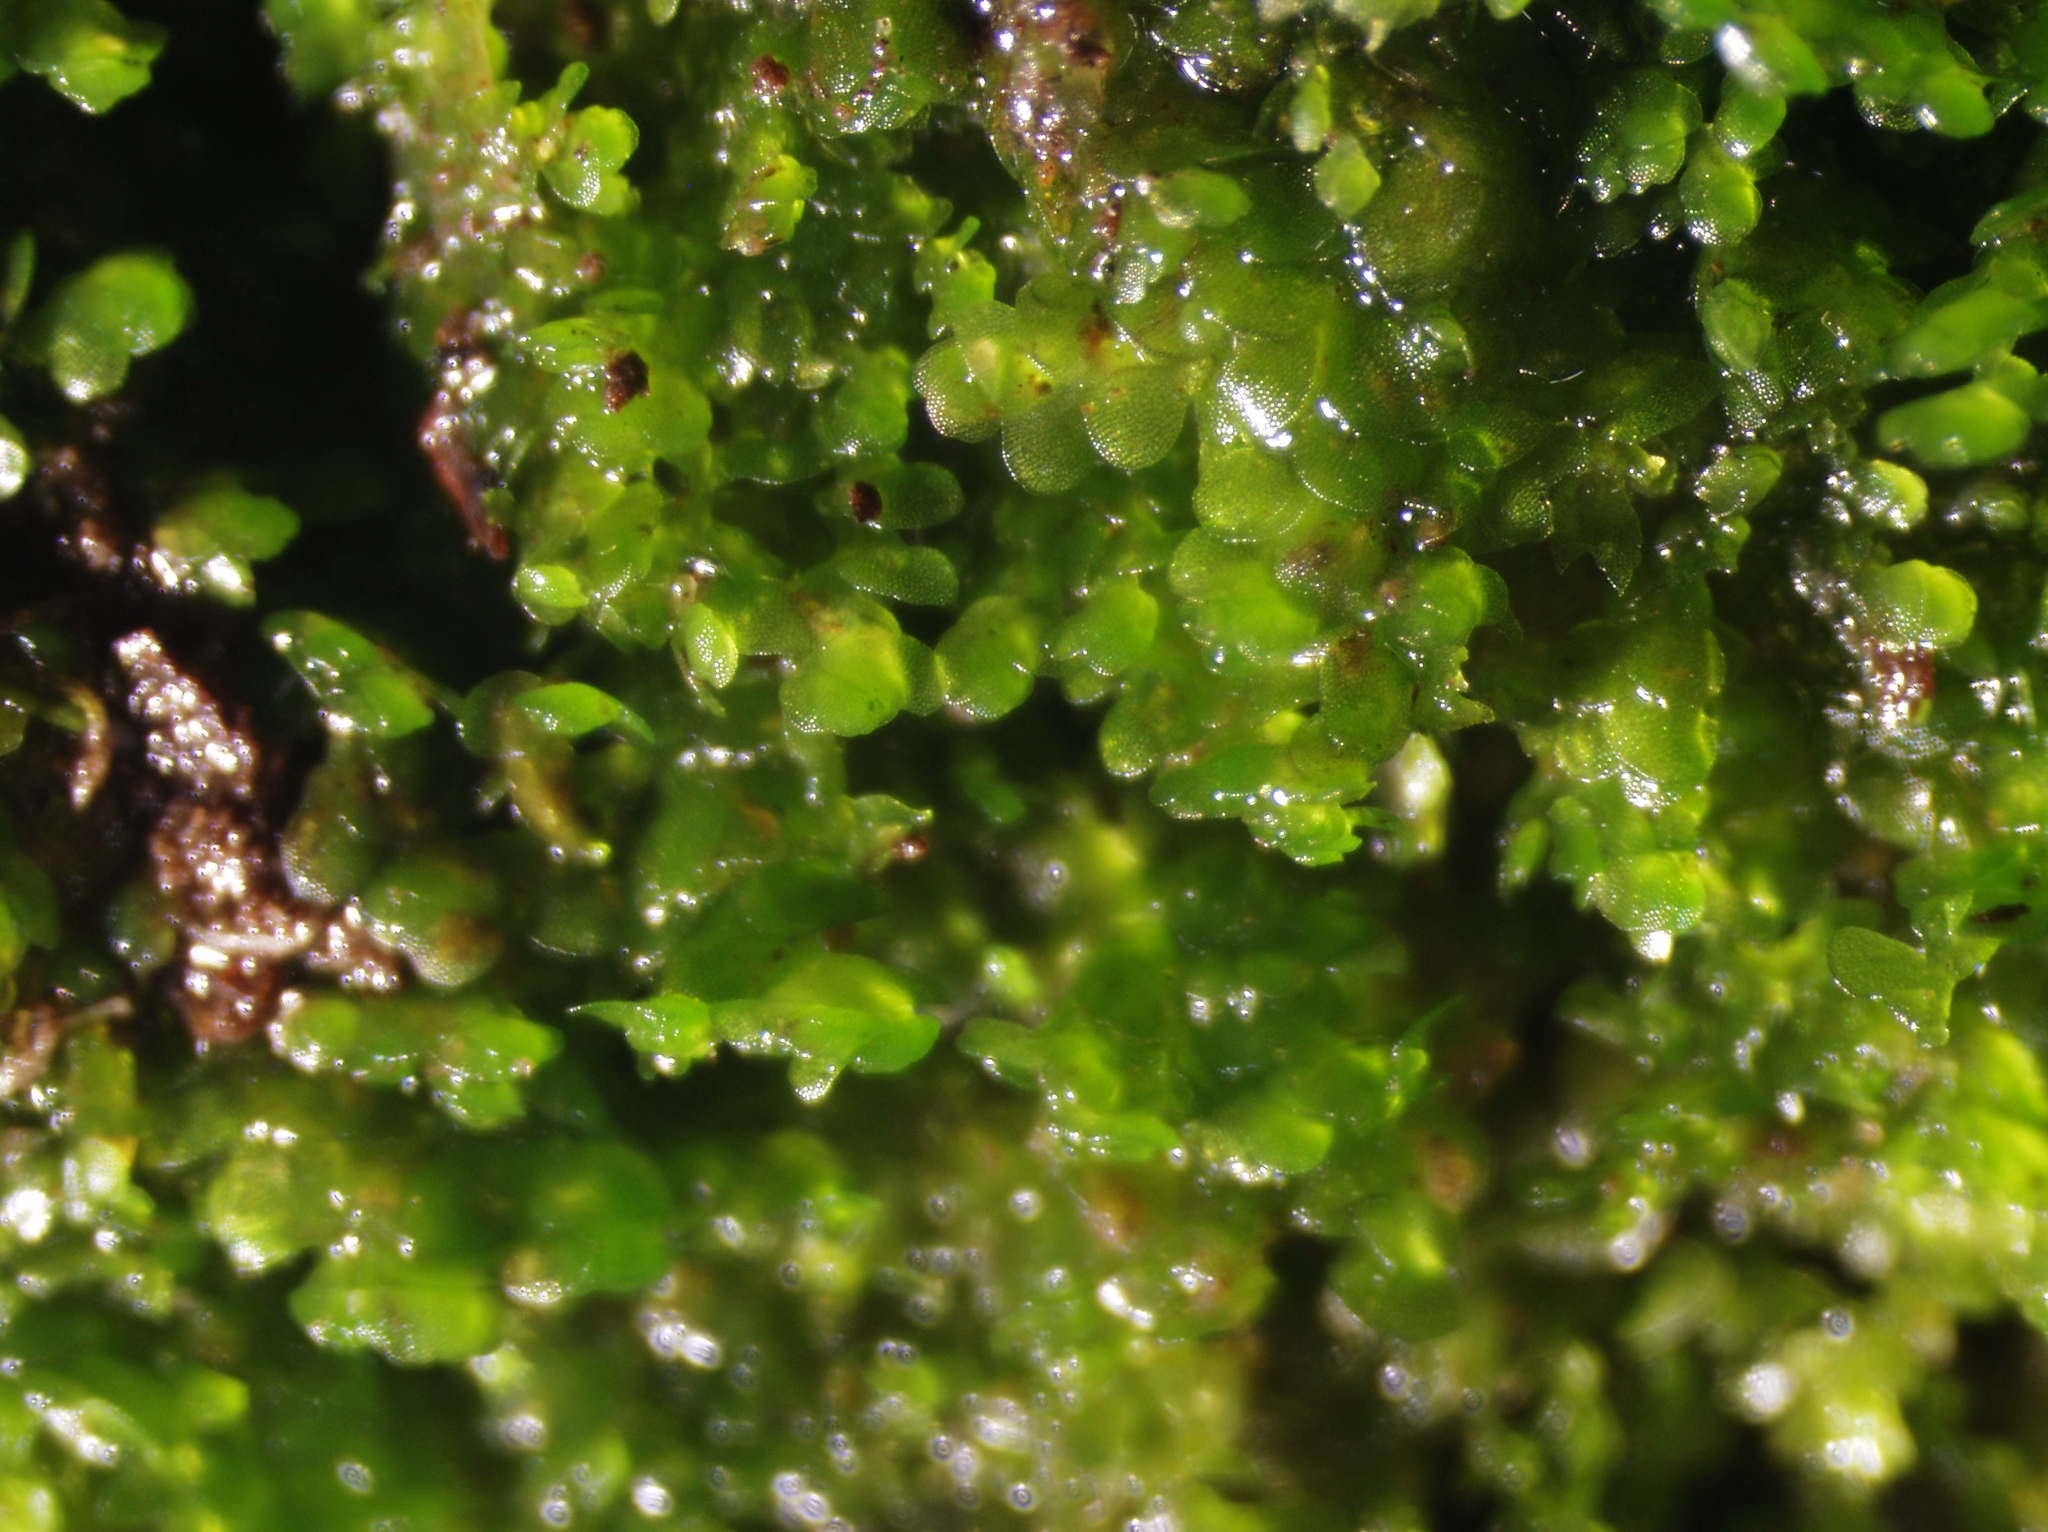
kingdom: Plantae
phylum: Marchantiophyta
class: Jungermanniopsida
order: Porellales
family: Lejeuneaceae
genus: Lejeunea
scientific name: Lejeunea cavifolia
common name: Least pouncewort
